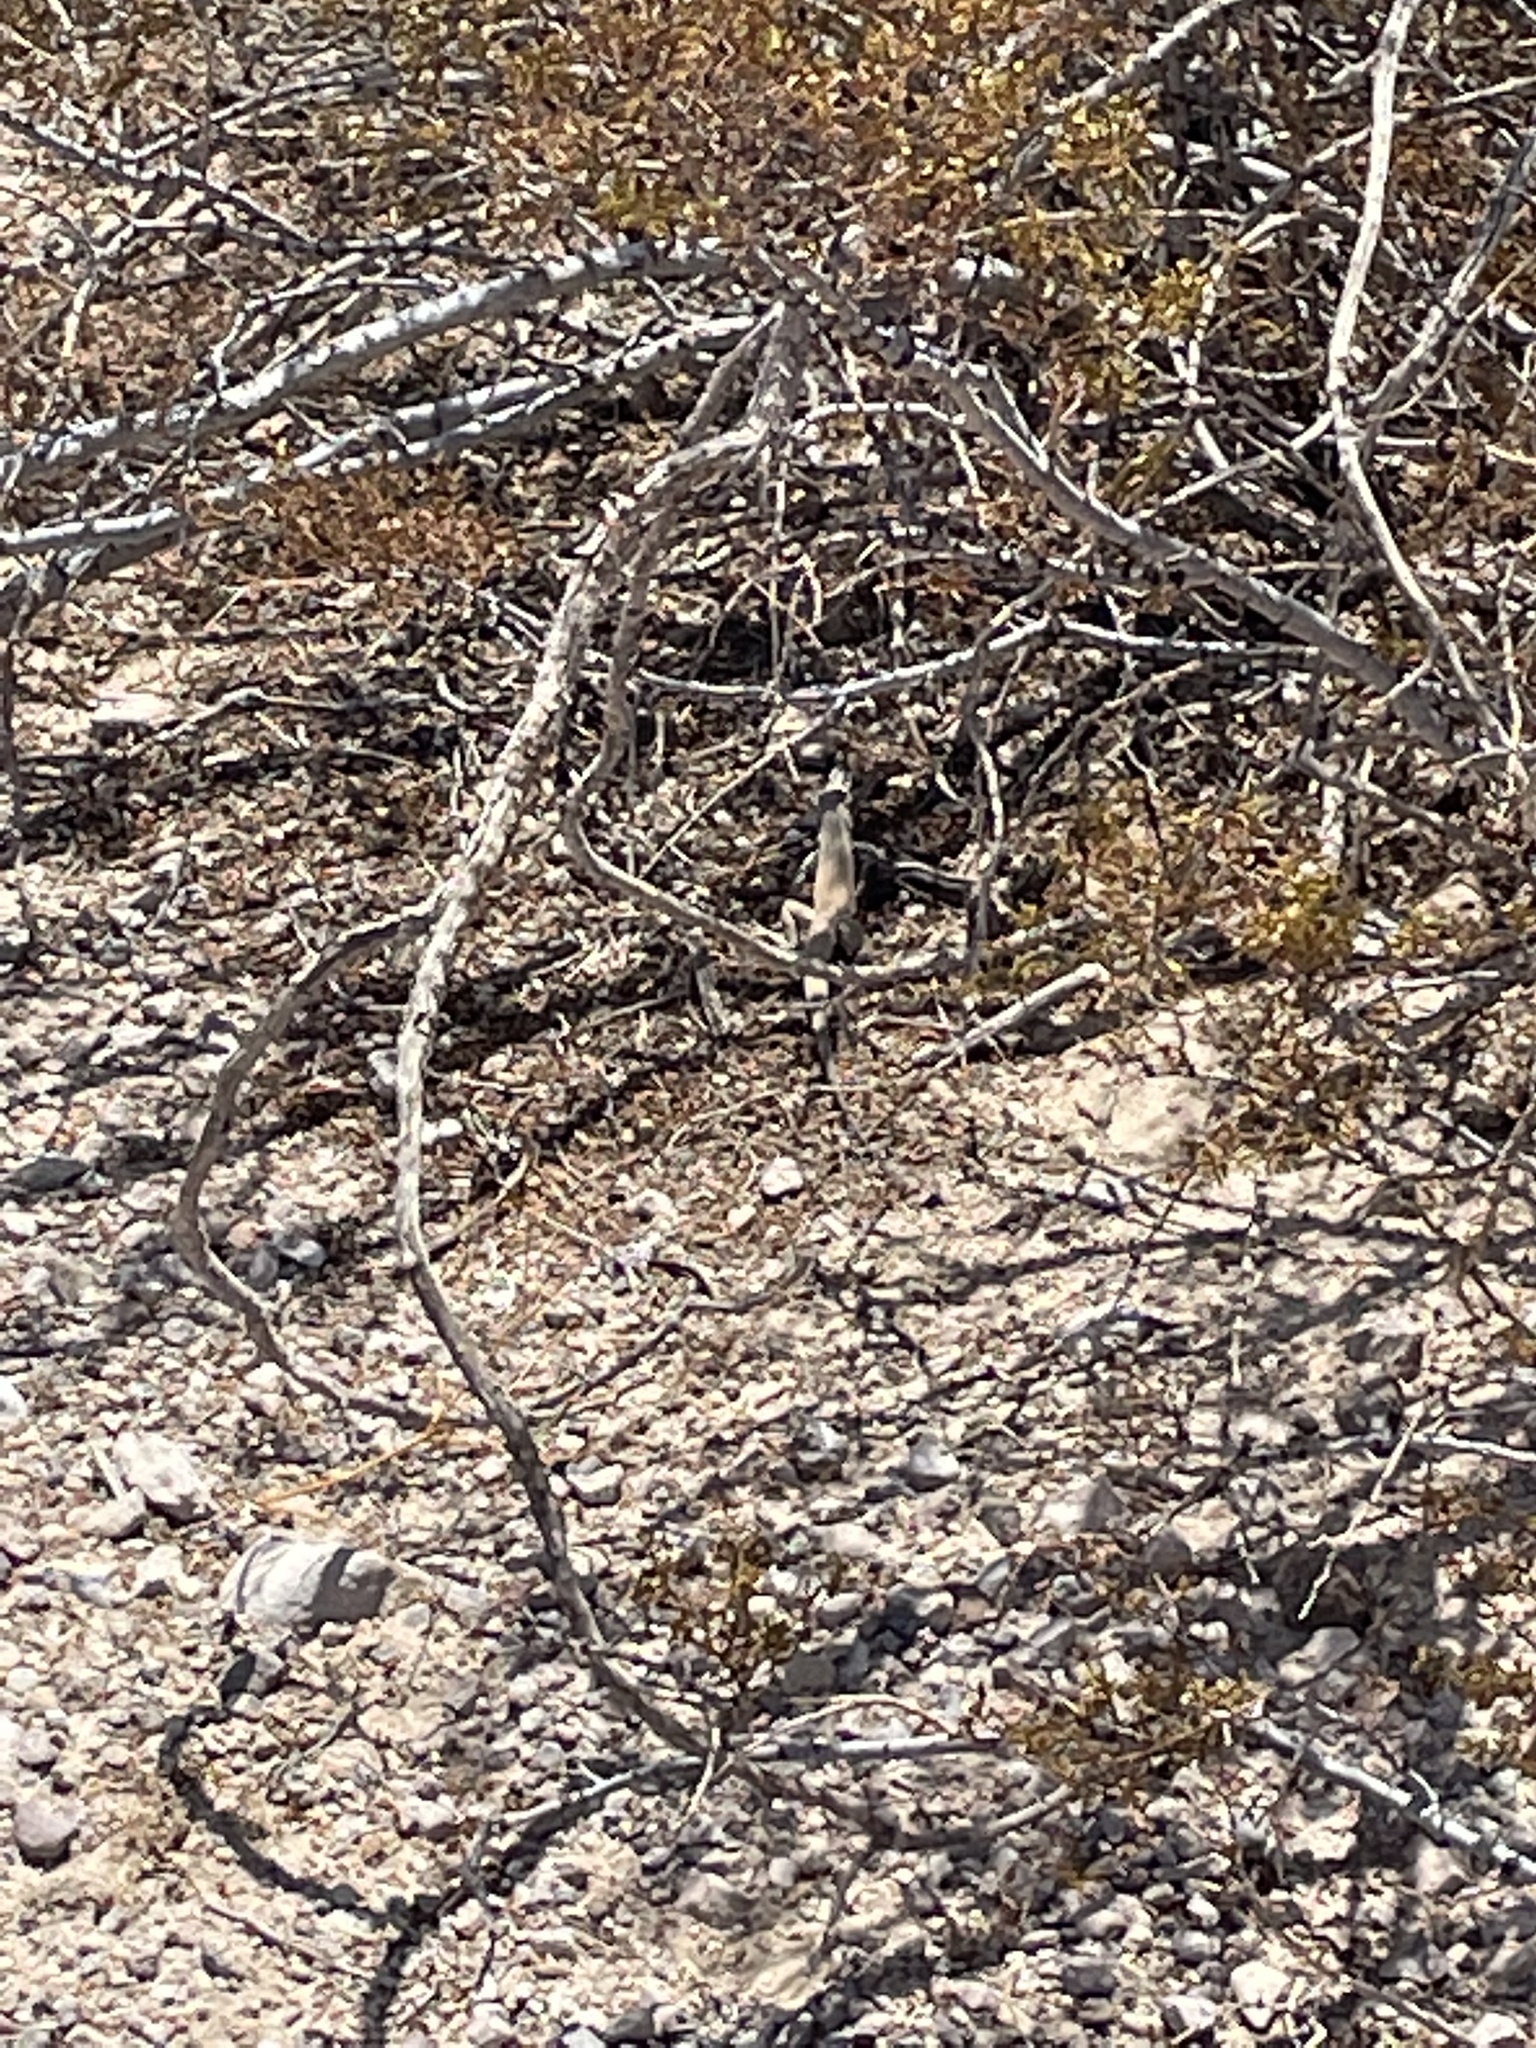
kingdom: Animalia
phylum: Chordata
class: Squamata
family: Teiidae
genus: Aspidoscelis
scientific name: Aspidoscelis tigris
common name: Tiger whiptail
